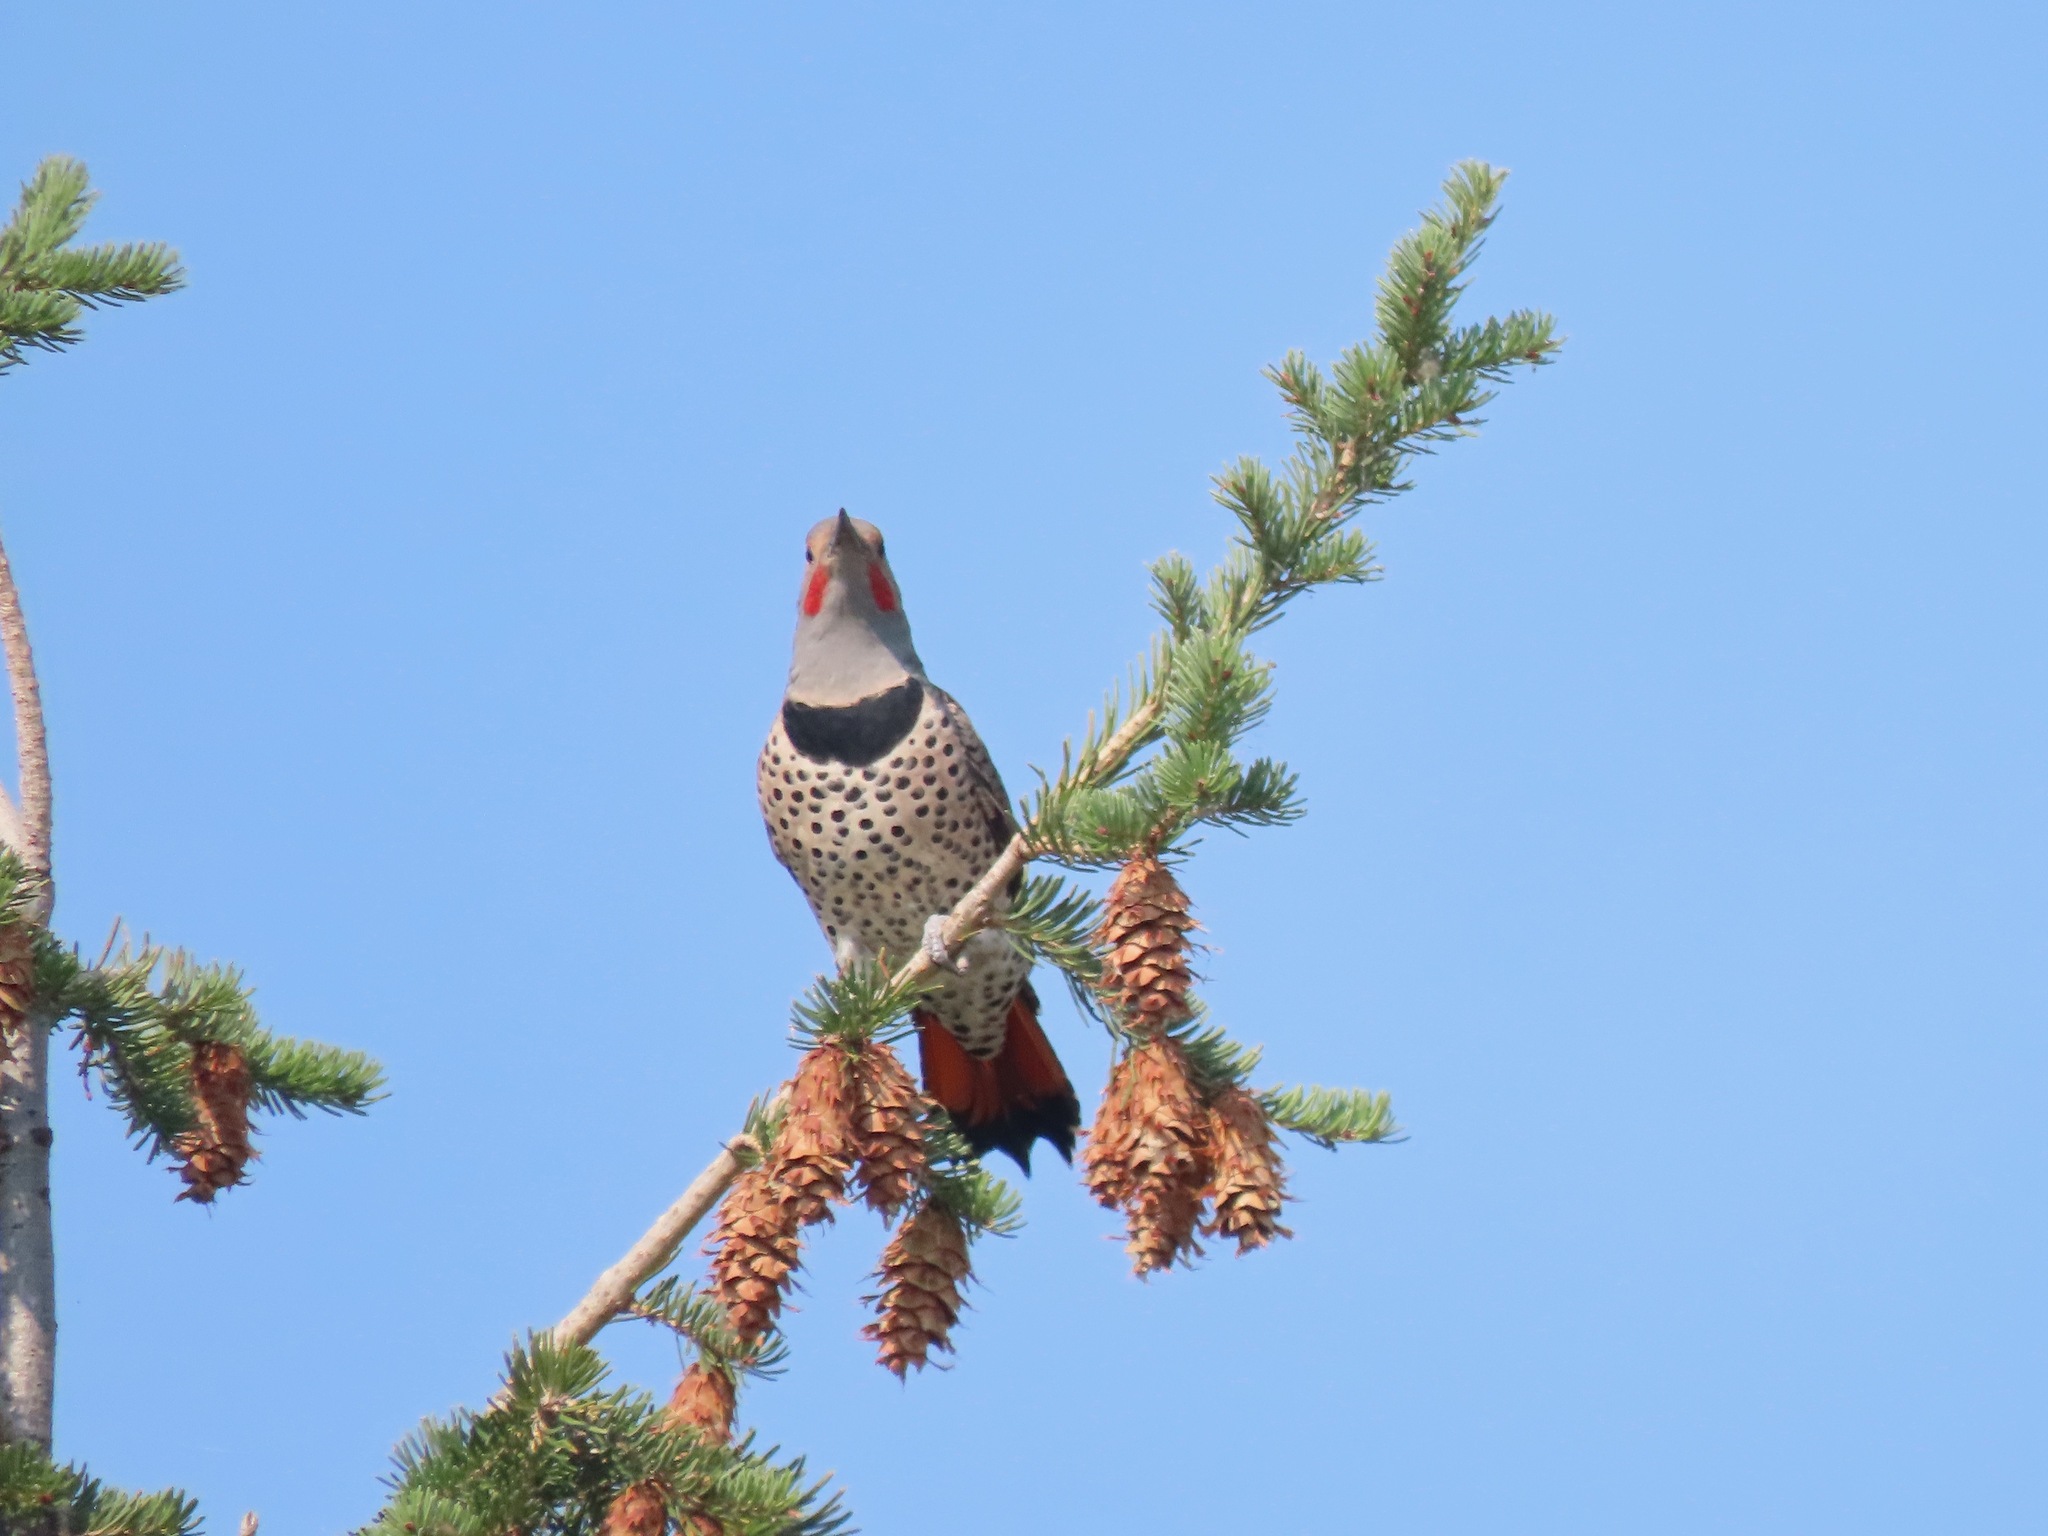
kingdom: Animalia
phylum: Chordata
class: Aves
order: Piciformes
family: Picidae
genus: Colaptes
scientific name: Colaptes auratus
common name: Northern flicker
